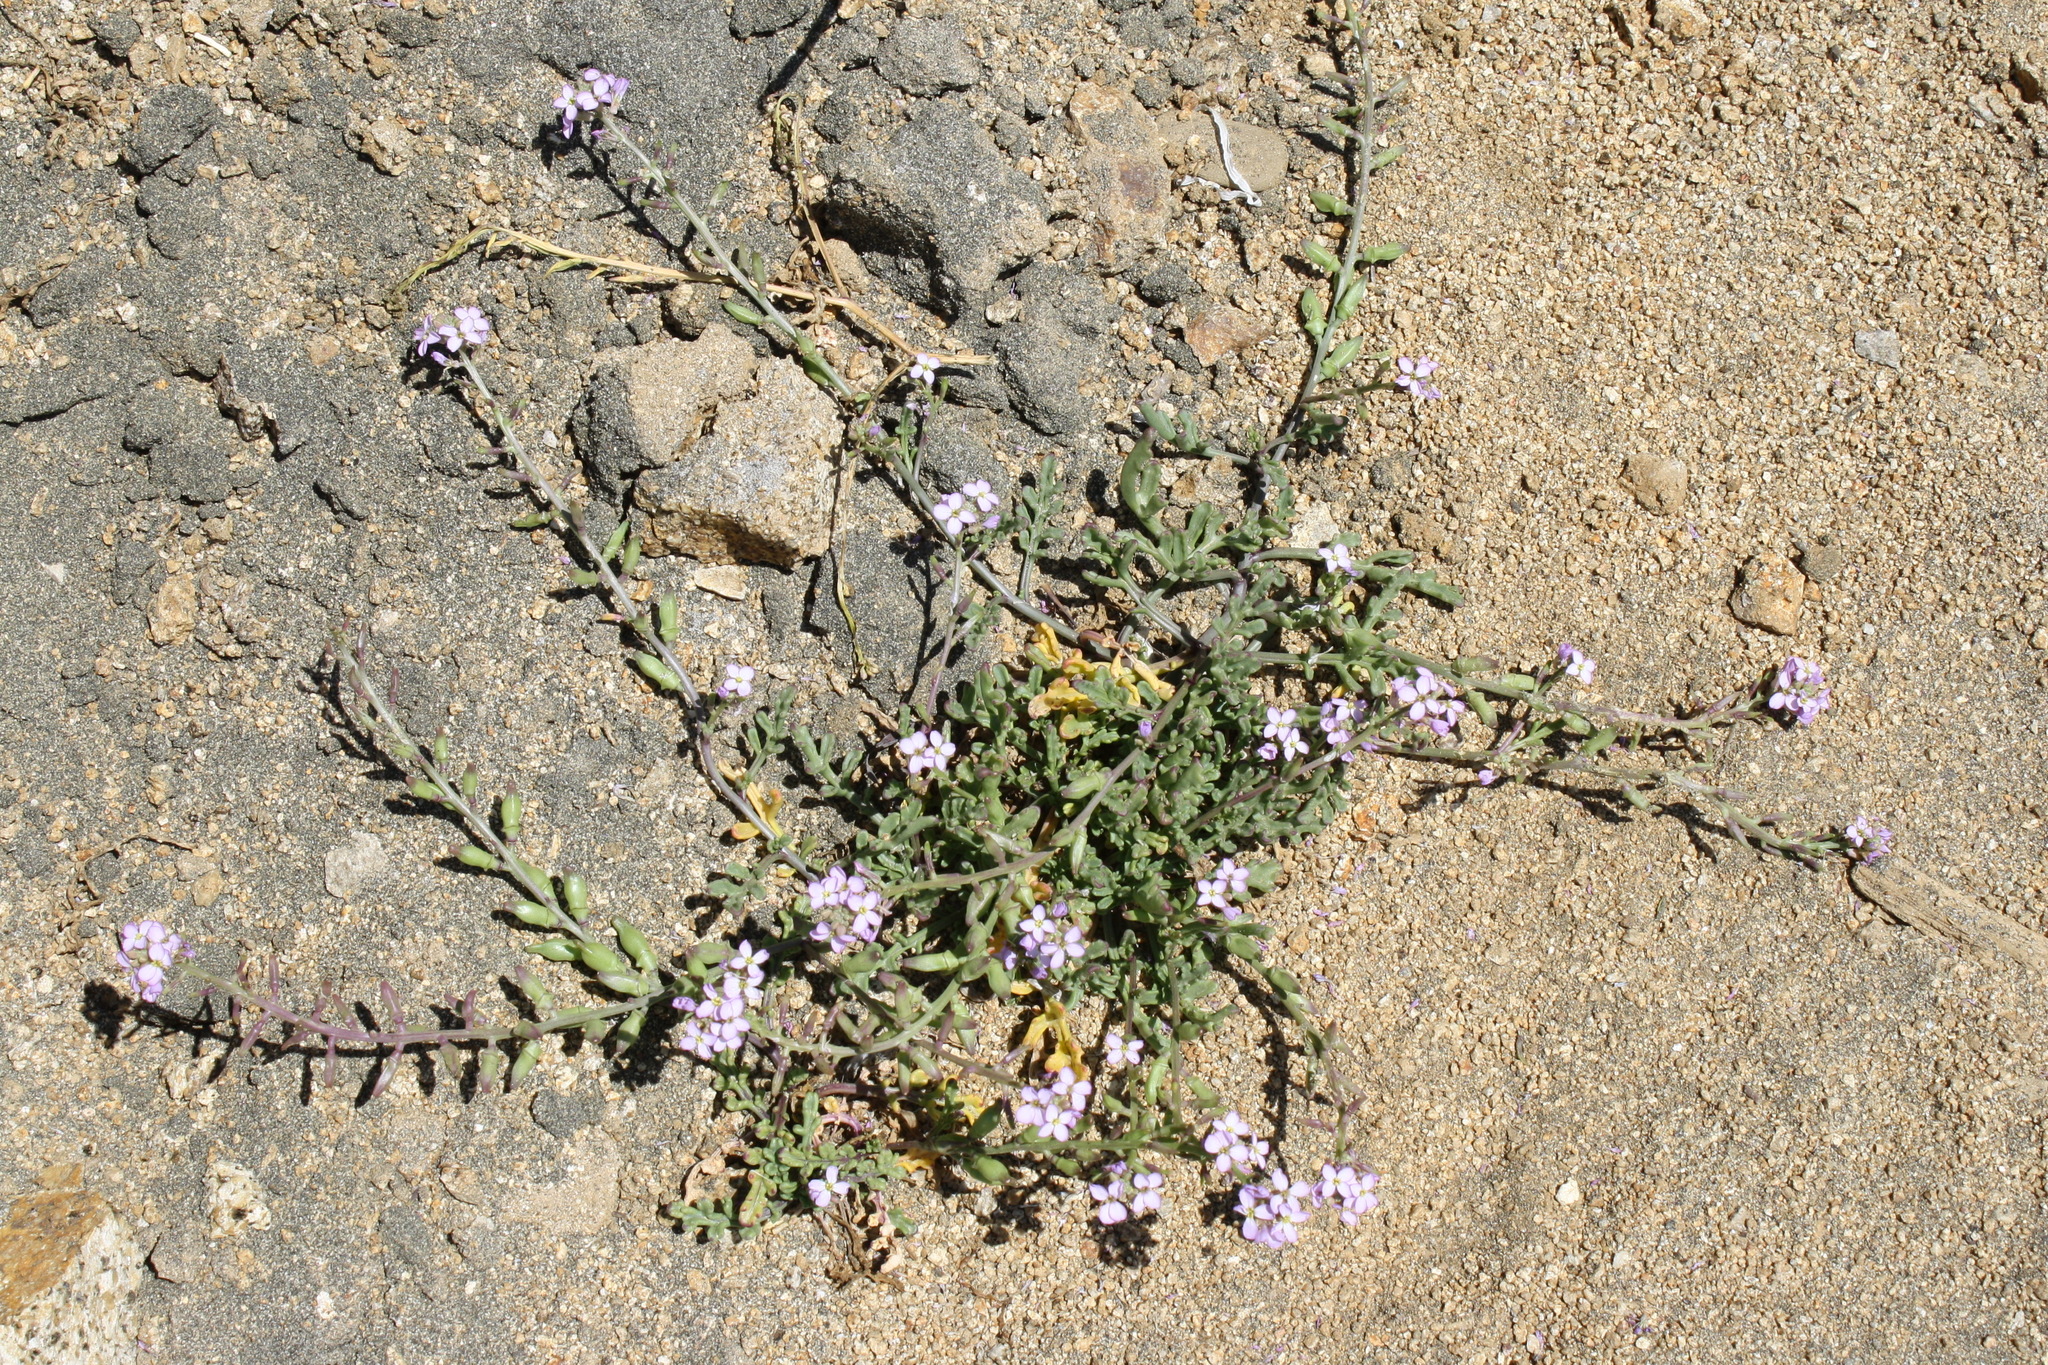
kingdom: Plantae
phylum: Tracheophyta
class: Magnoliopsida
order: Brassicales
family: Brassicaceae
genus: Cakile
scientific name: Cakile maritima
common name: Sea rocket
